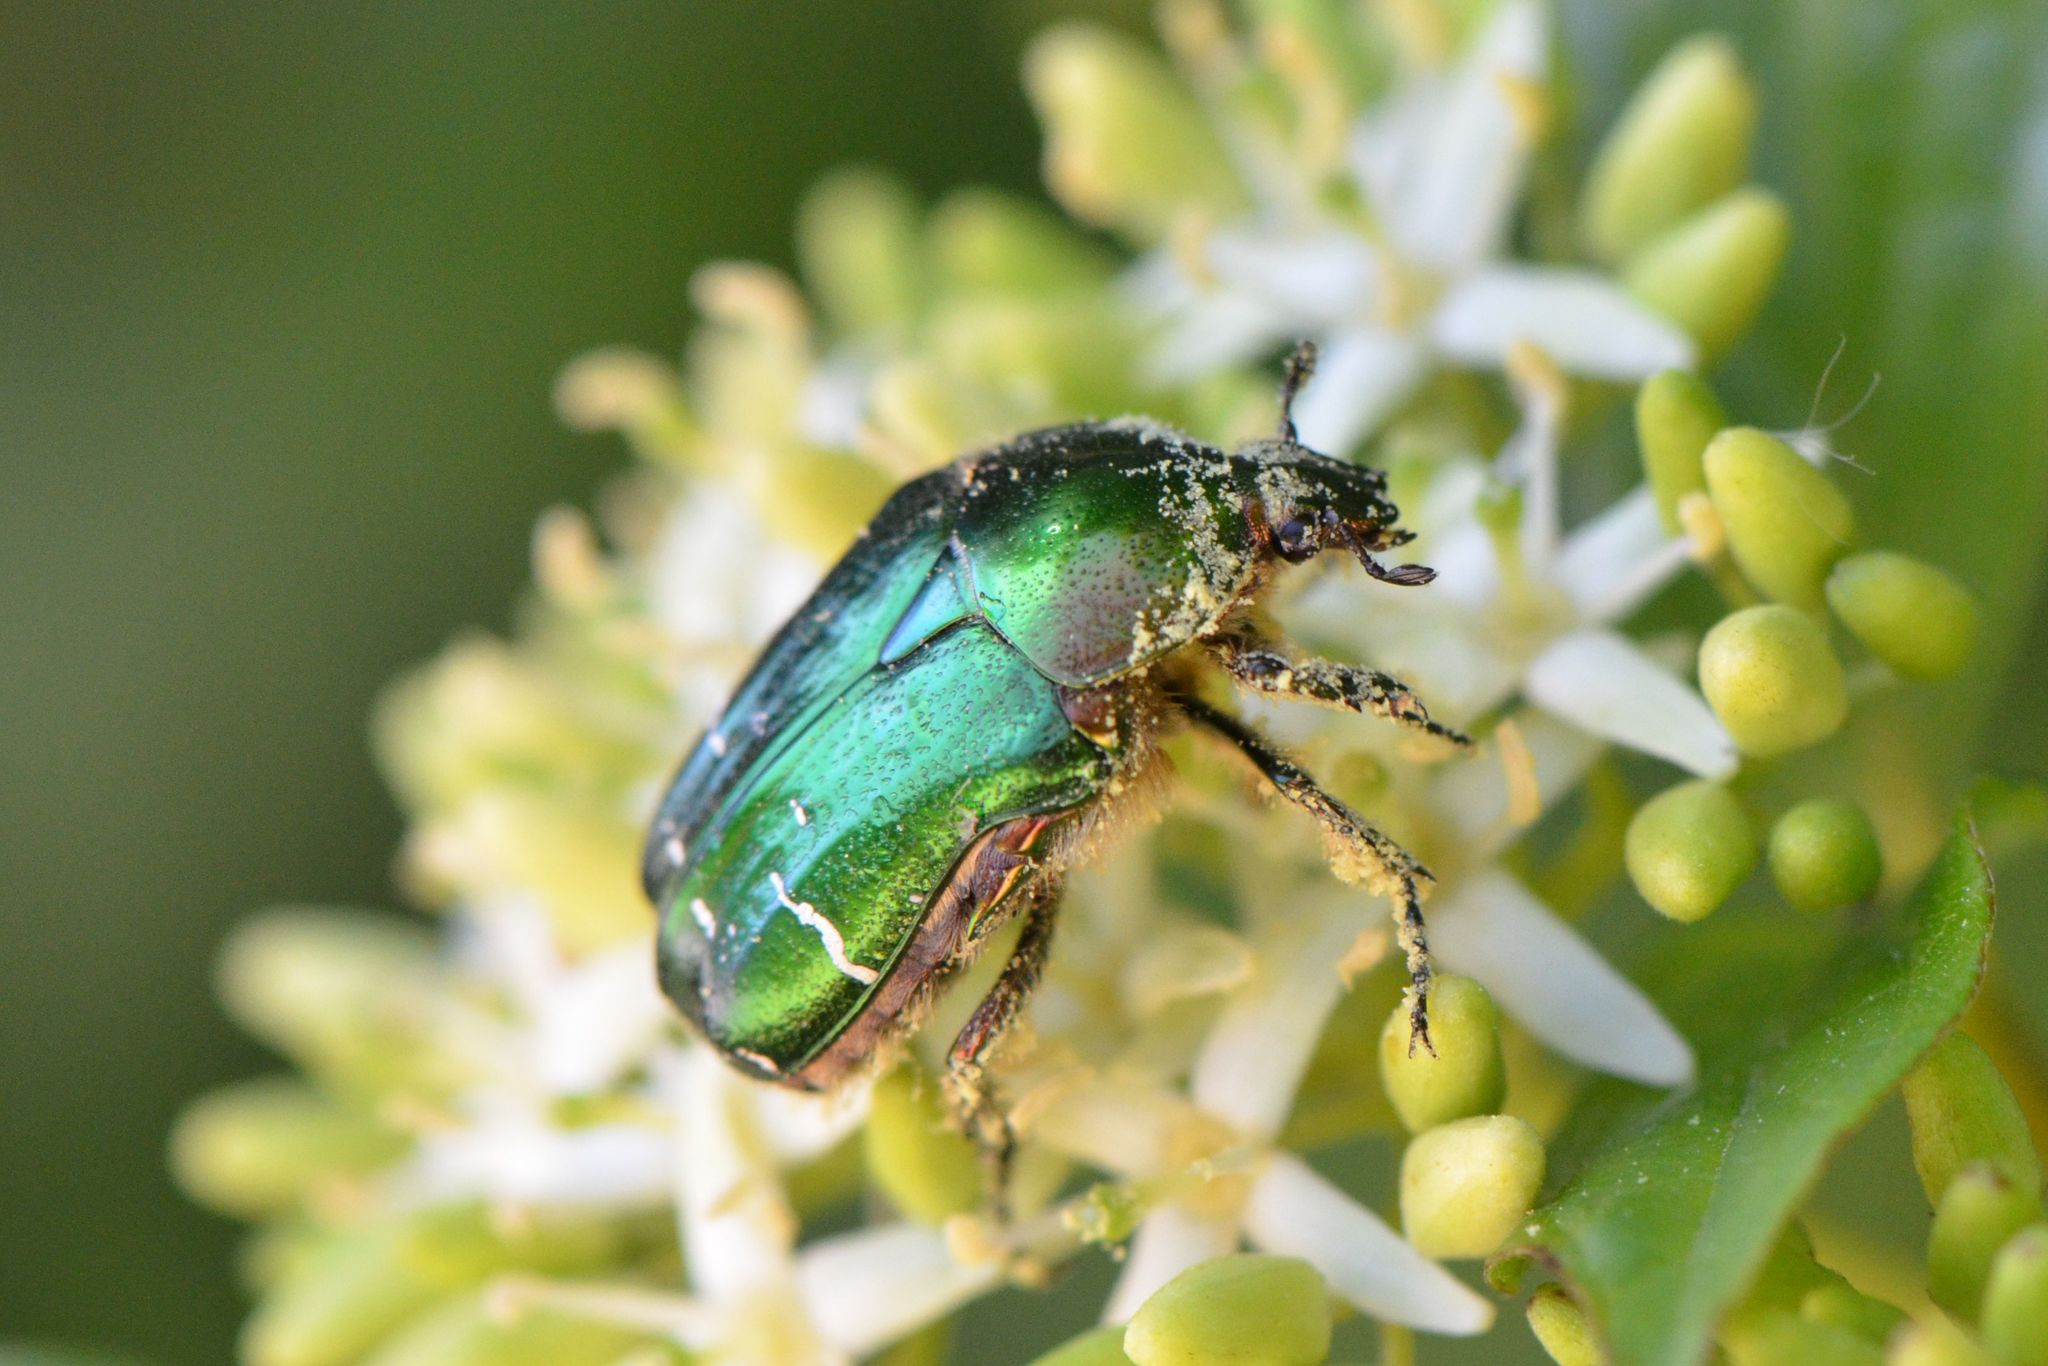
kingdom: Animalia
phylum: Arthropoda
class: Insecta
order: Coleoptera
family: Scarabaeidae
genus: Cetonia
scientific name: Cetonia aurata
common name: Rose chafer
